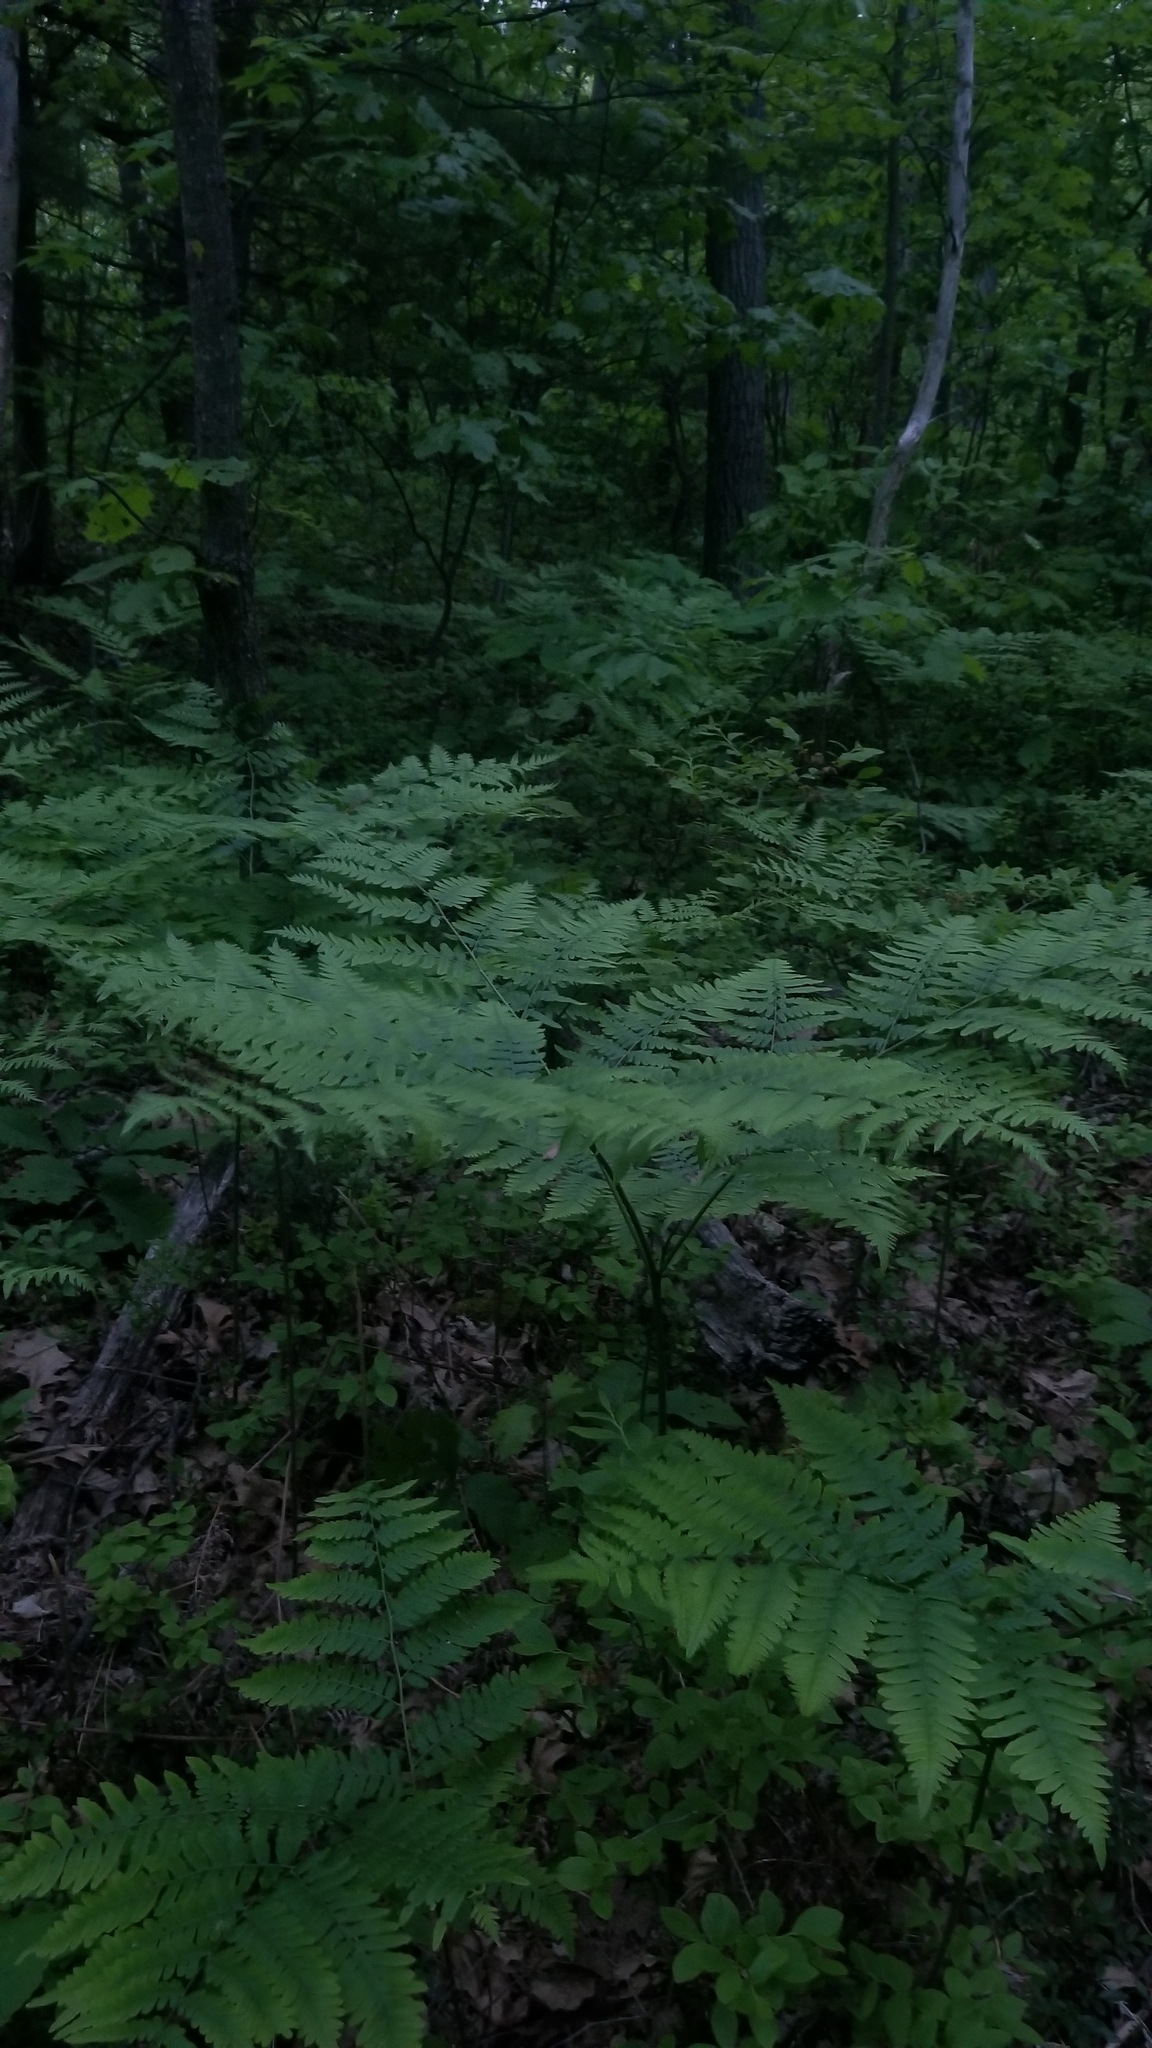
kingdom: Plantae
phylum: Tracheophyta
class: Polypodiopsida
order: Polypodiales
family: Dennstaedtiaceae
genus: Pteridium
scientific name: Pteridium aquilinum
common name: Bracken
